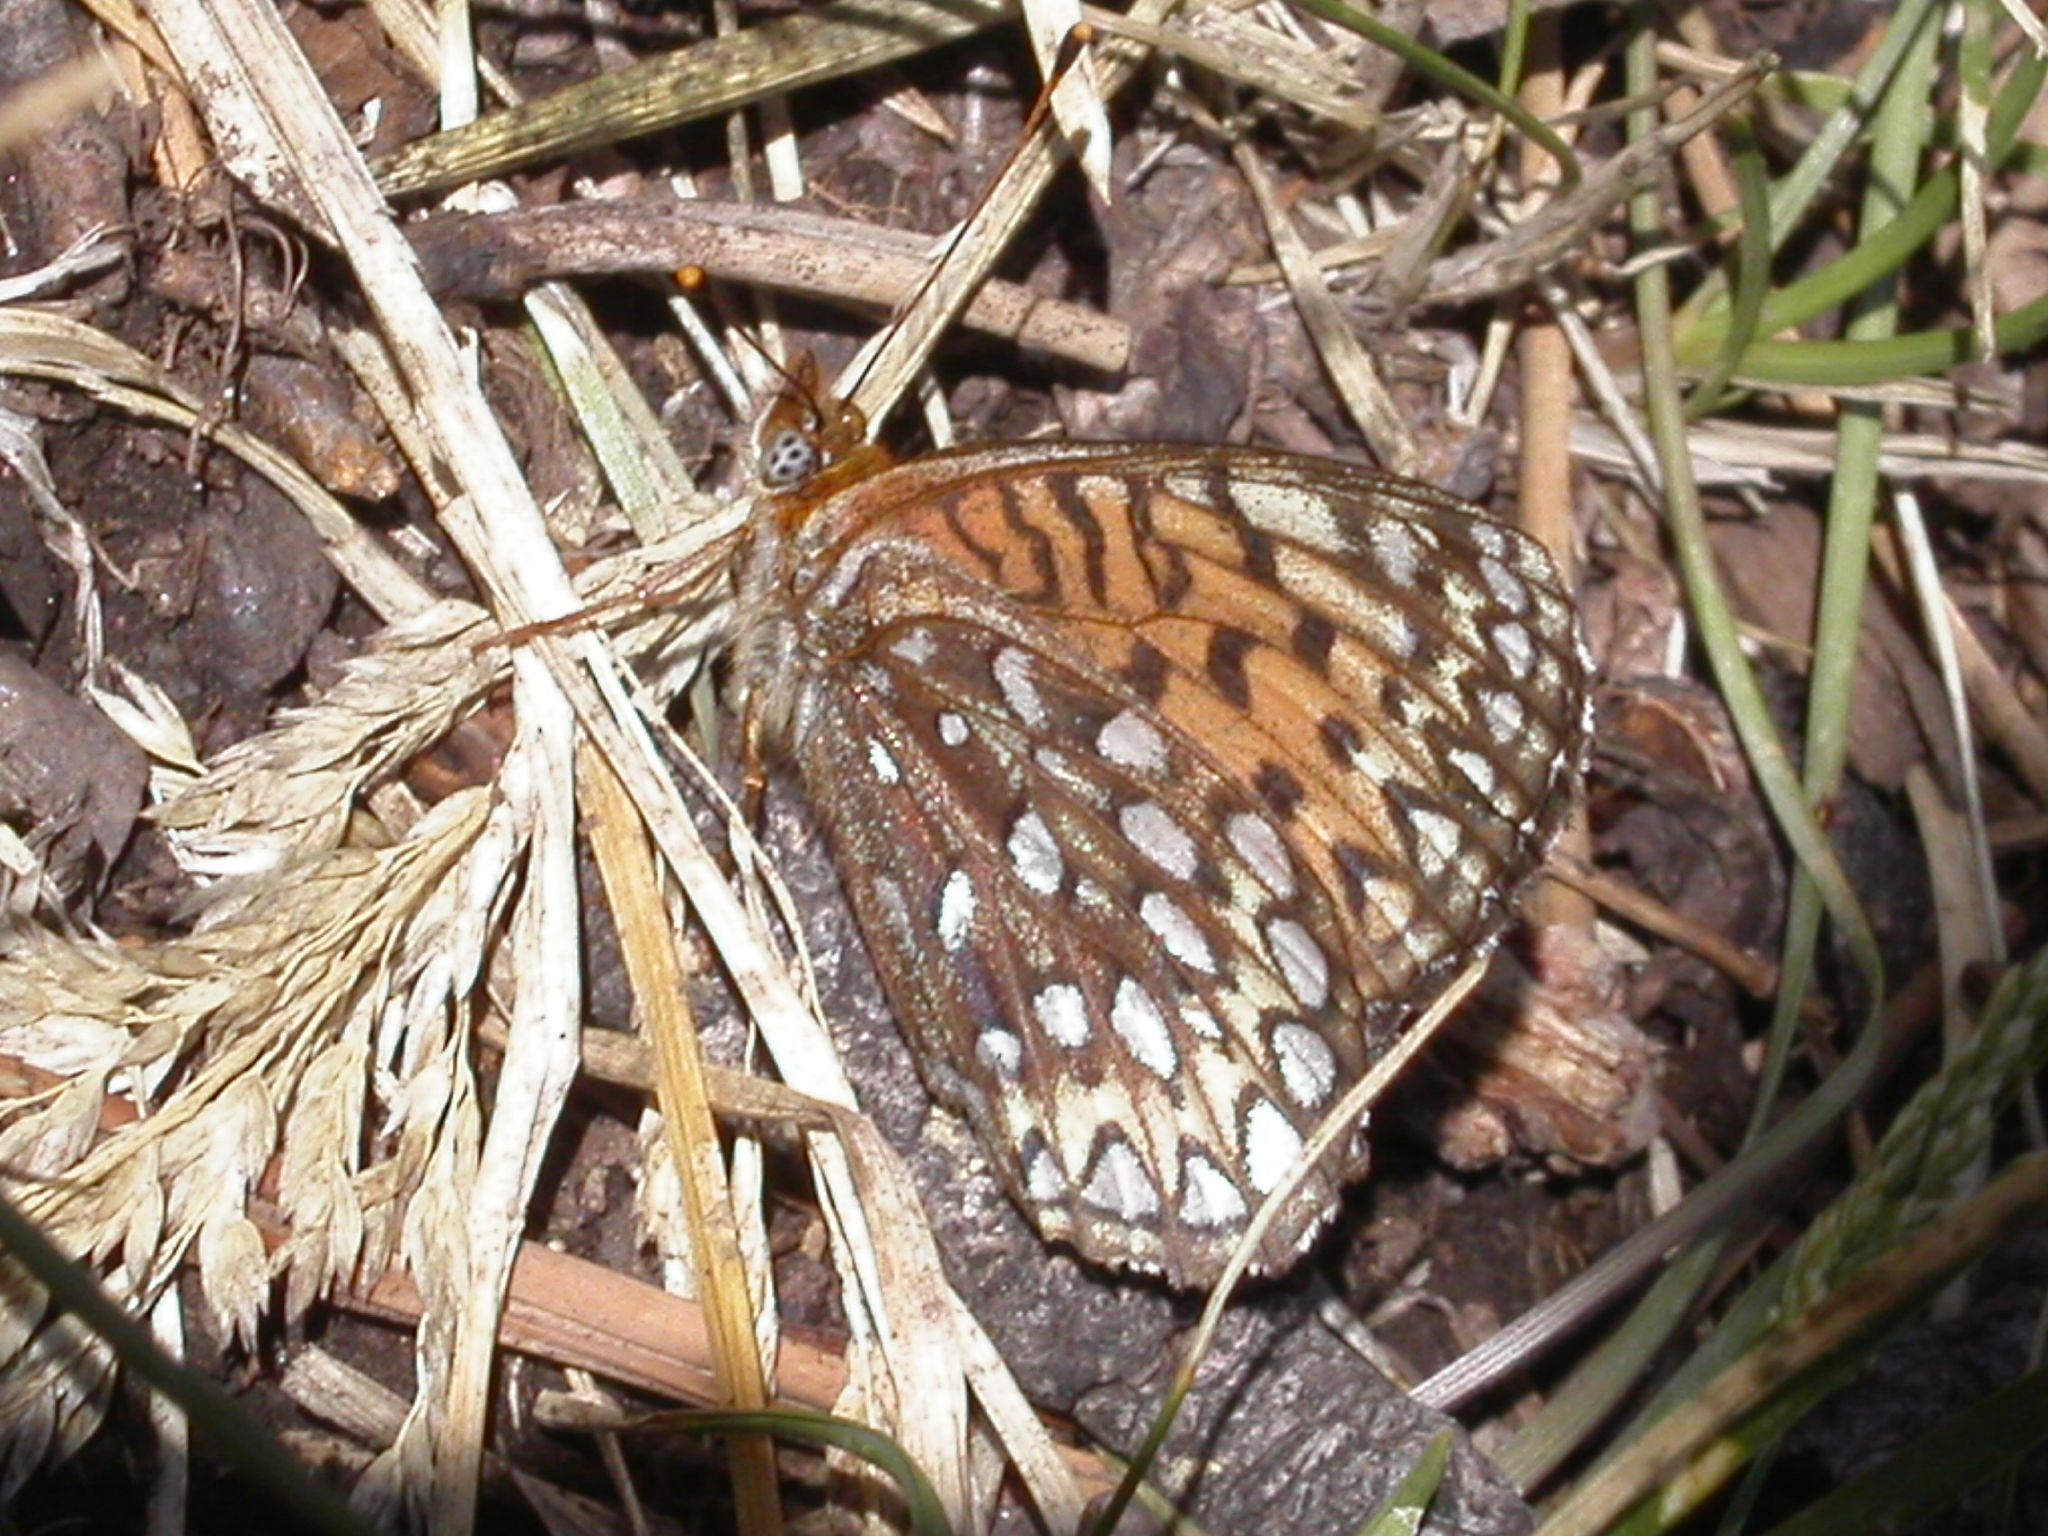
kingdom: Animalia
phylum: Arthropoda
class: Insecta
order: Lepidoptera
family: Nymphalidae
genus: Speyeria
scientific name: Speyeria atlantis
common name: Atlantis fritillary
